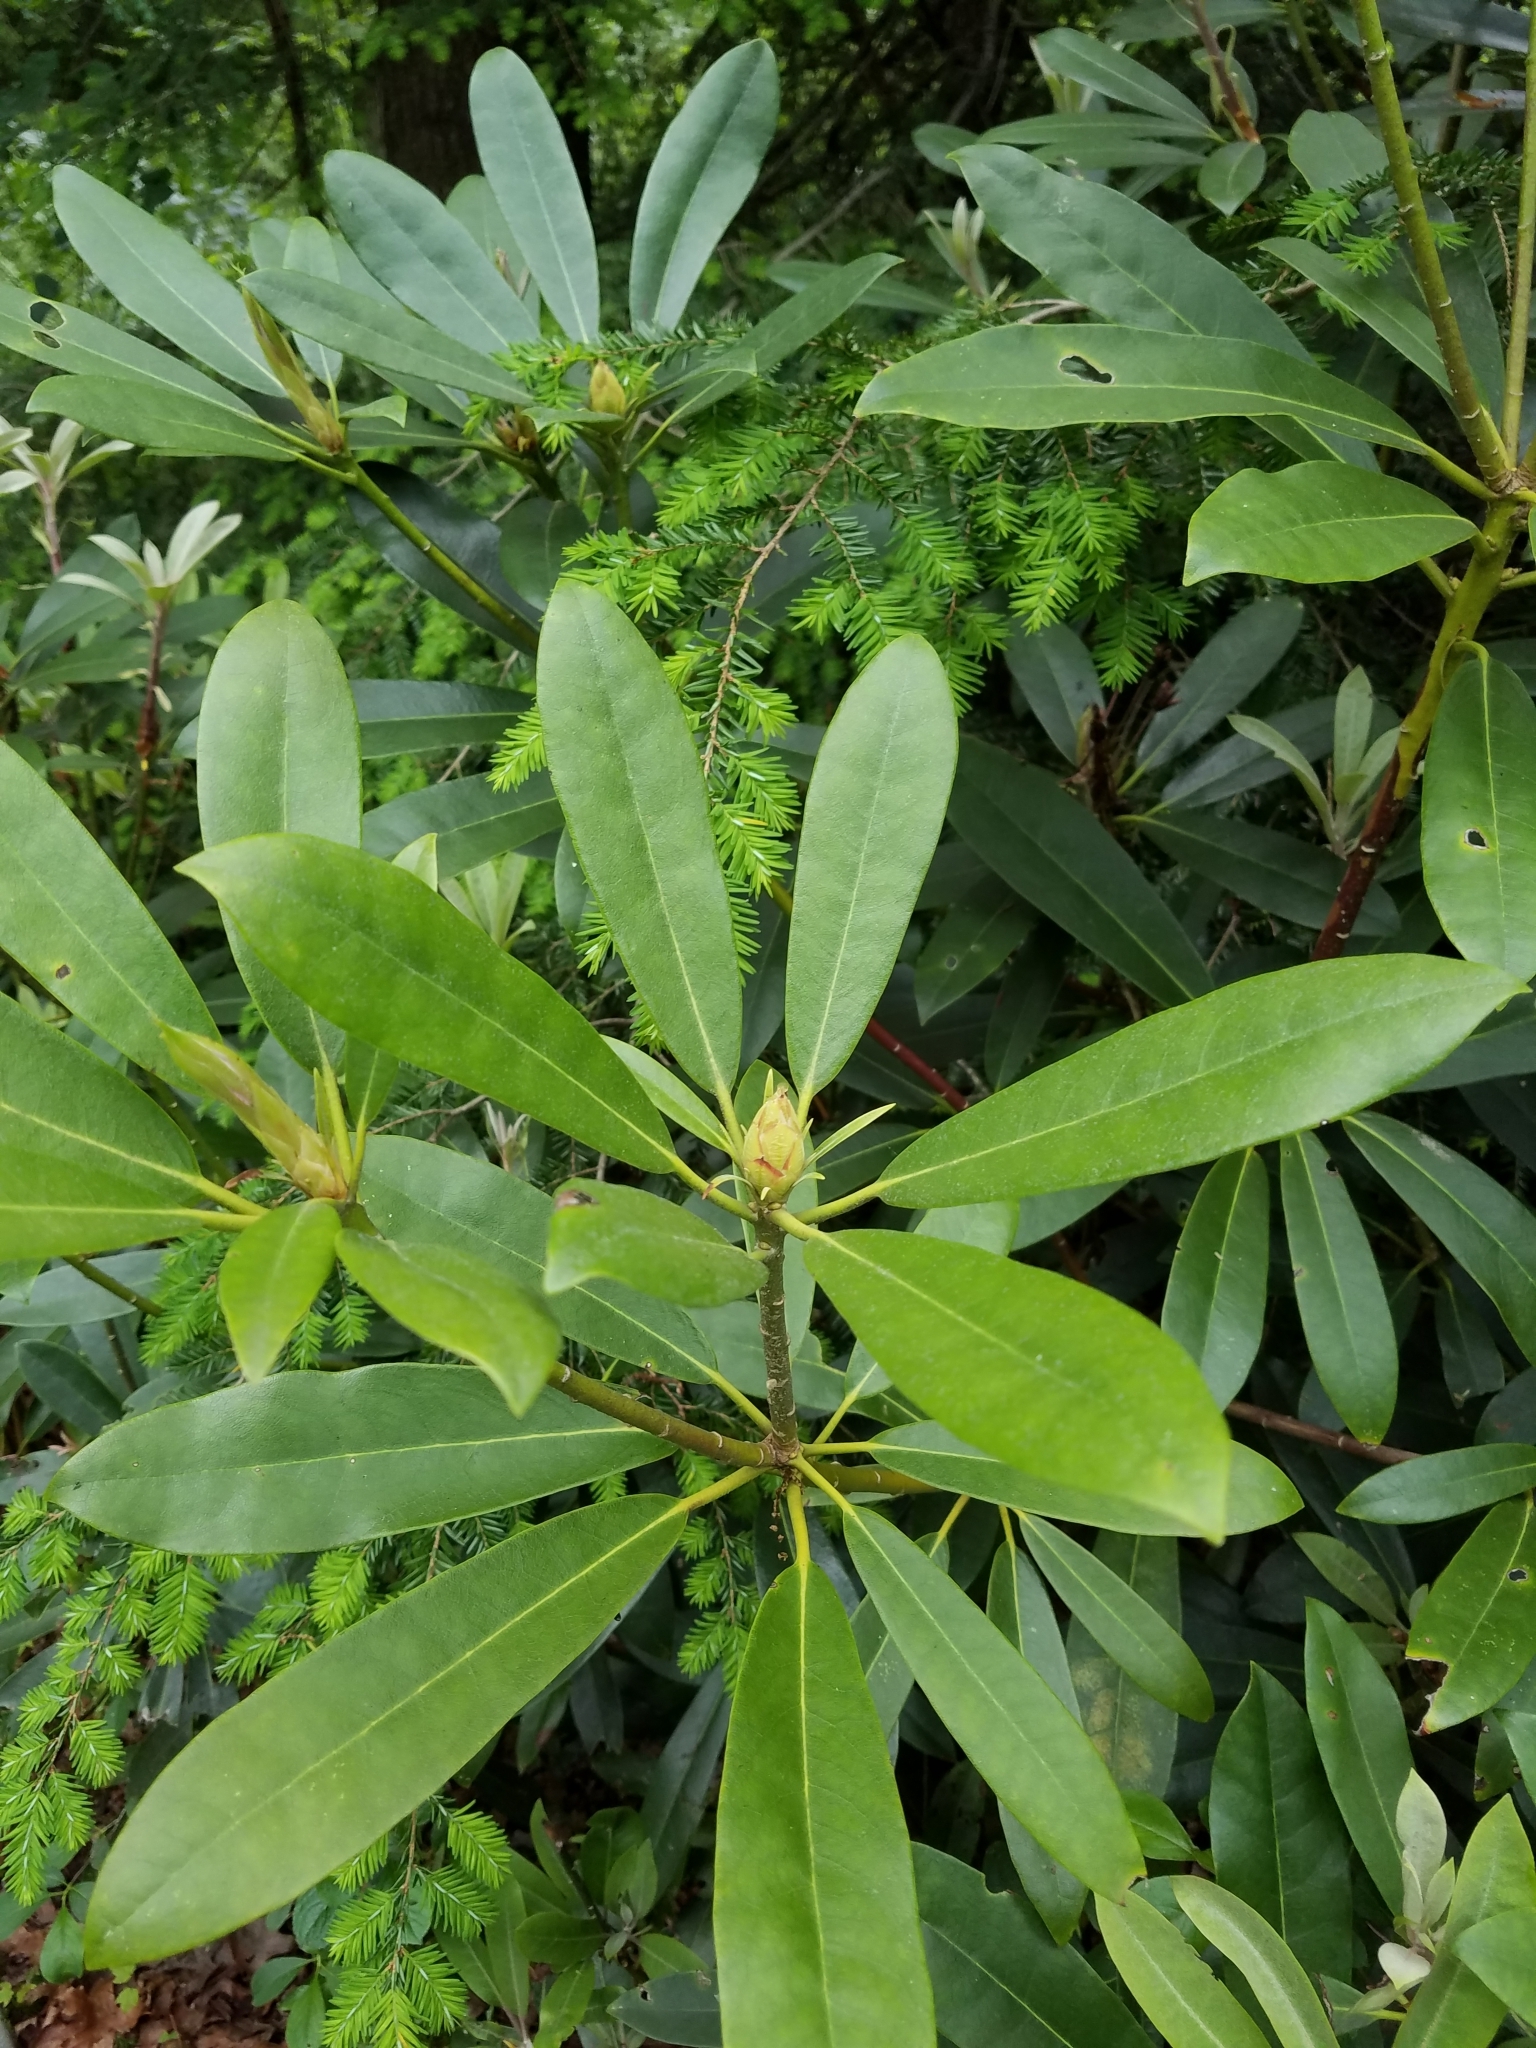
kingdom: Plantae
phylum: Tracheophyta
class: Magnoliopsida
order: Ericales
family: Ericaceae
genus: Rhododendron
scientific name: Rhododendron maximum
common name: Great rhododendron
